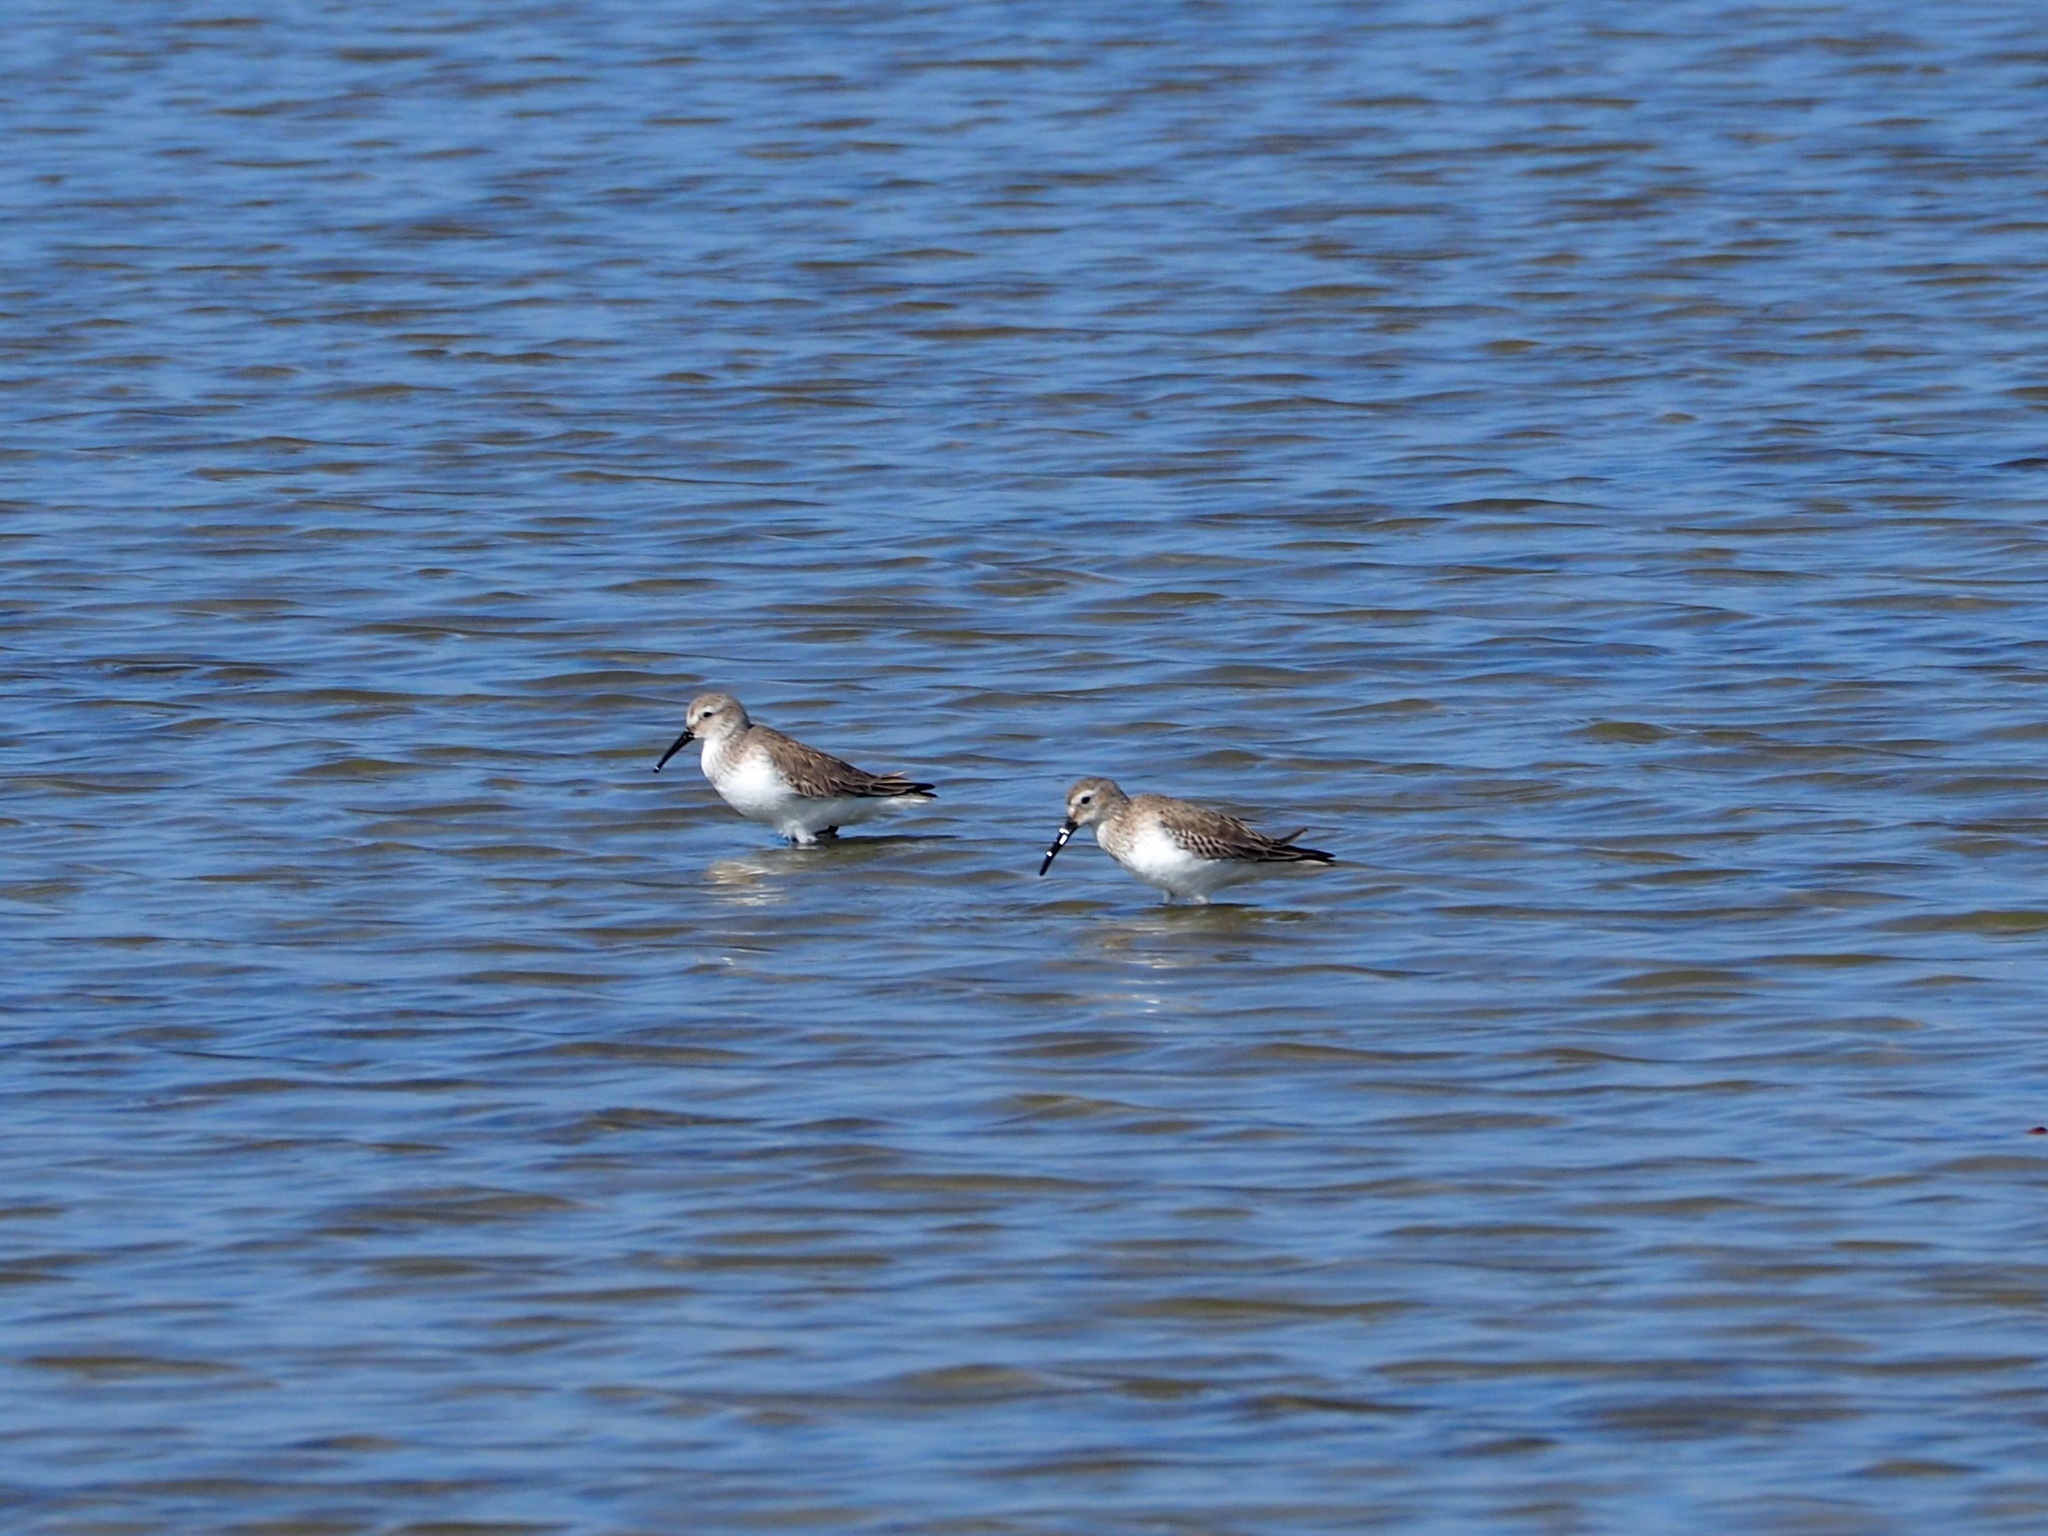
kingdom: Animalia
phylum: Chordata
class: Aves
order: Charadriiformes
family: Scolopacidae
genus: Calidris
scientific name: Calidris alpina
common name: Dunlin
